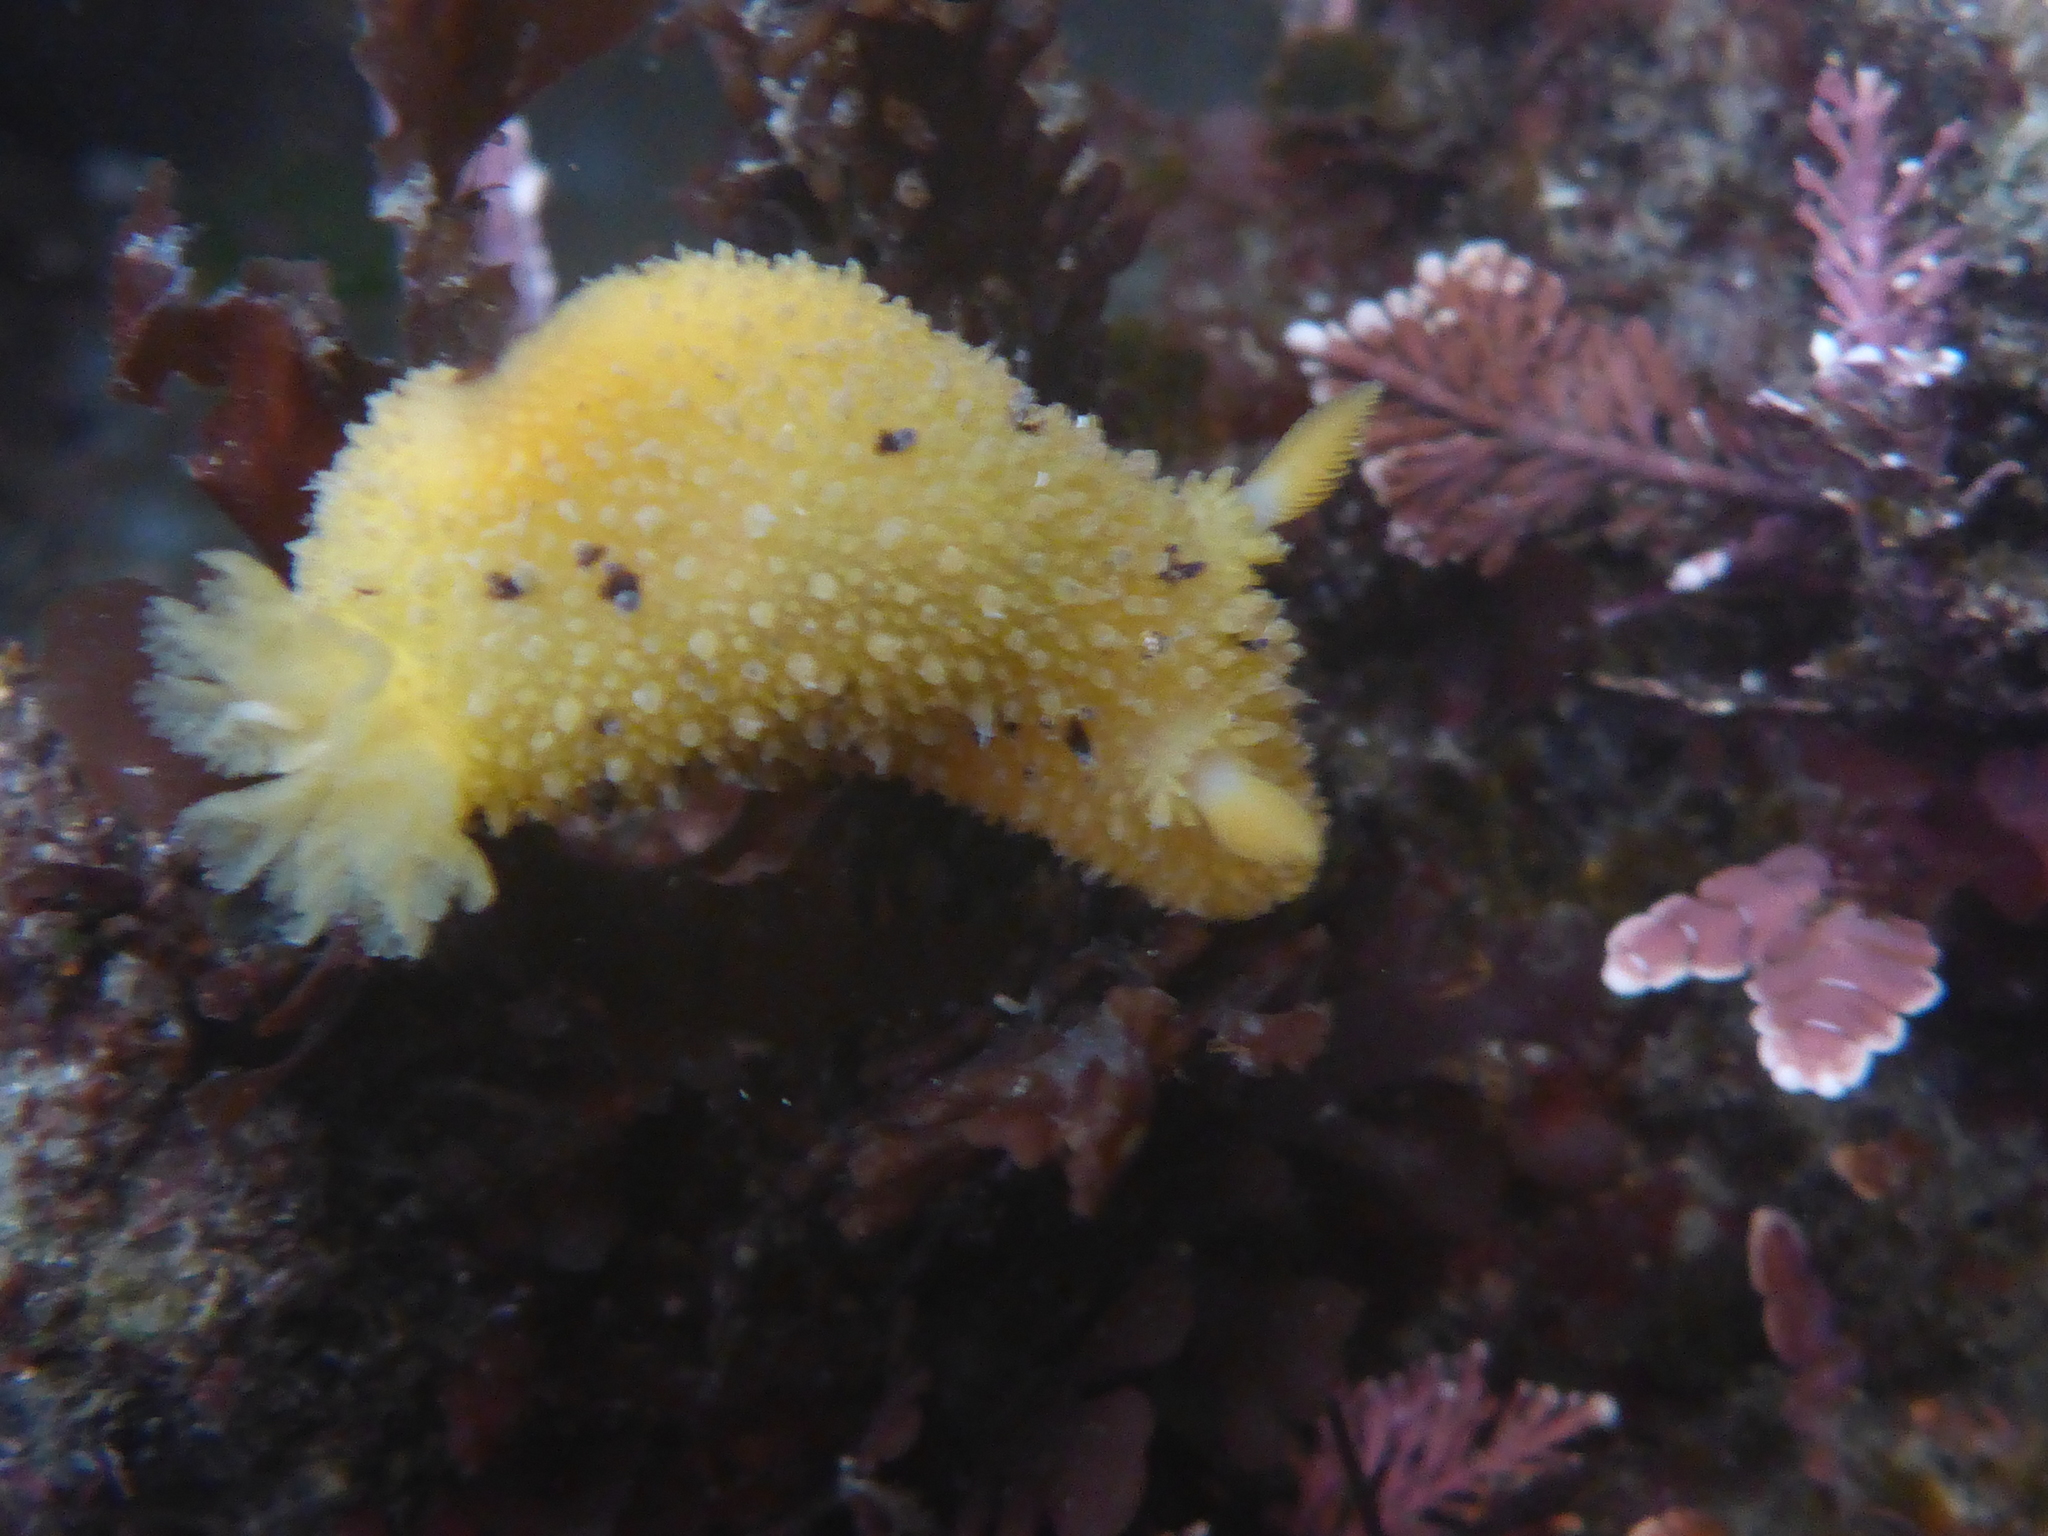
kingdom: Animalia
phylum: Mollusca
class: Gastropoda
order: Nudibranchia
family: Dorididae
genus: Doris
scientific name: Doris montereyensis
